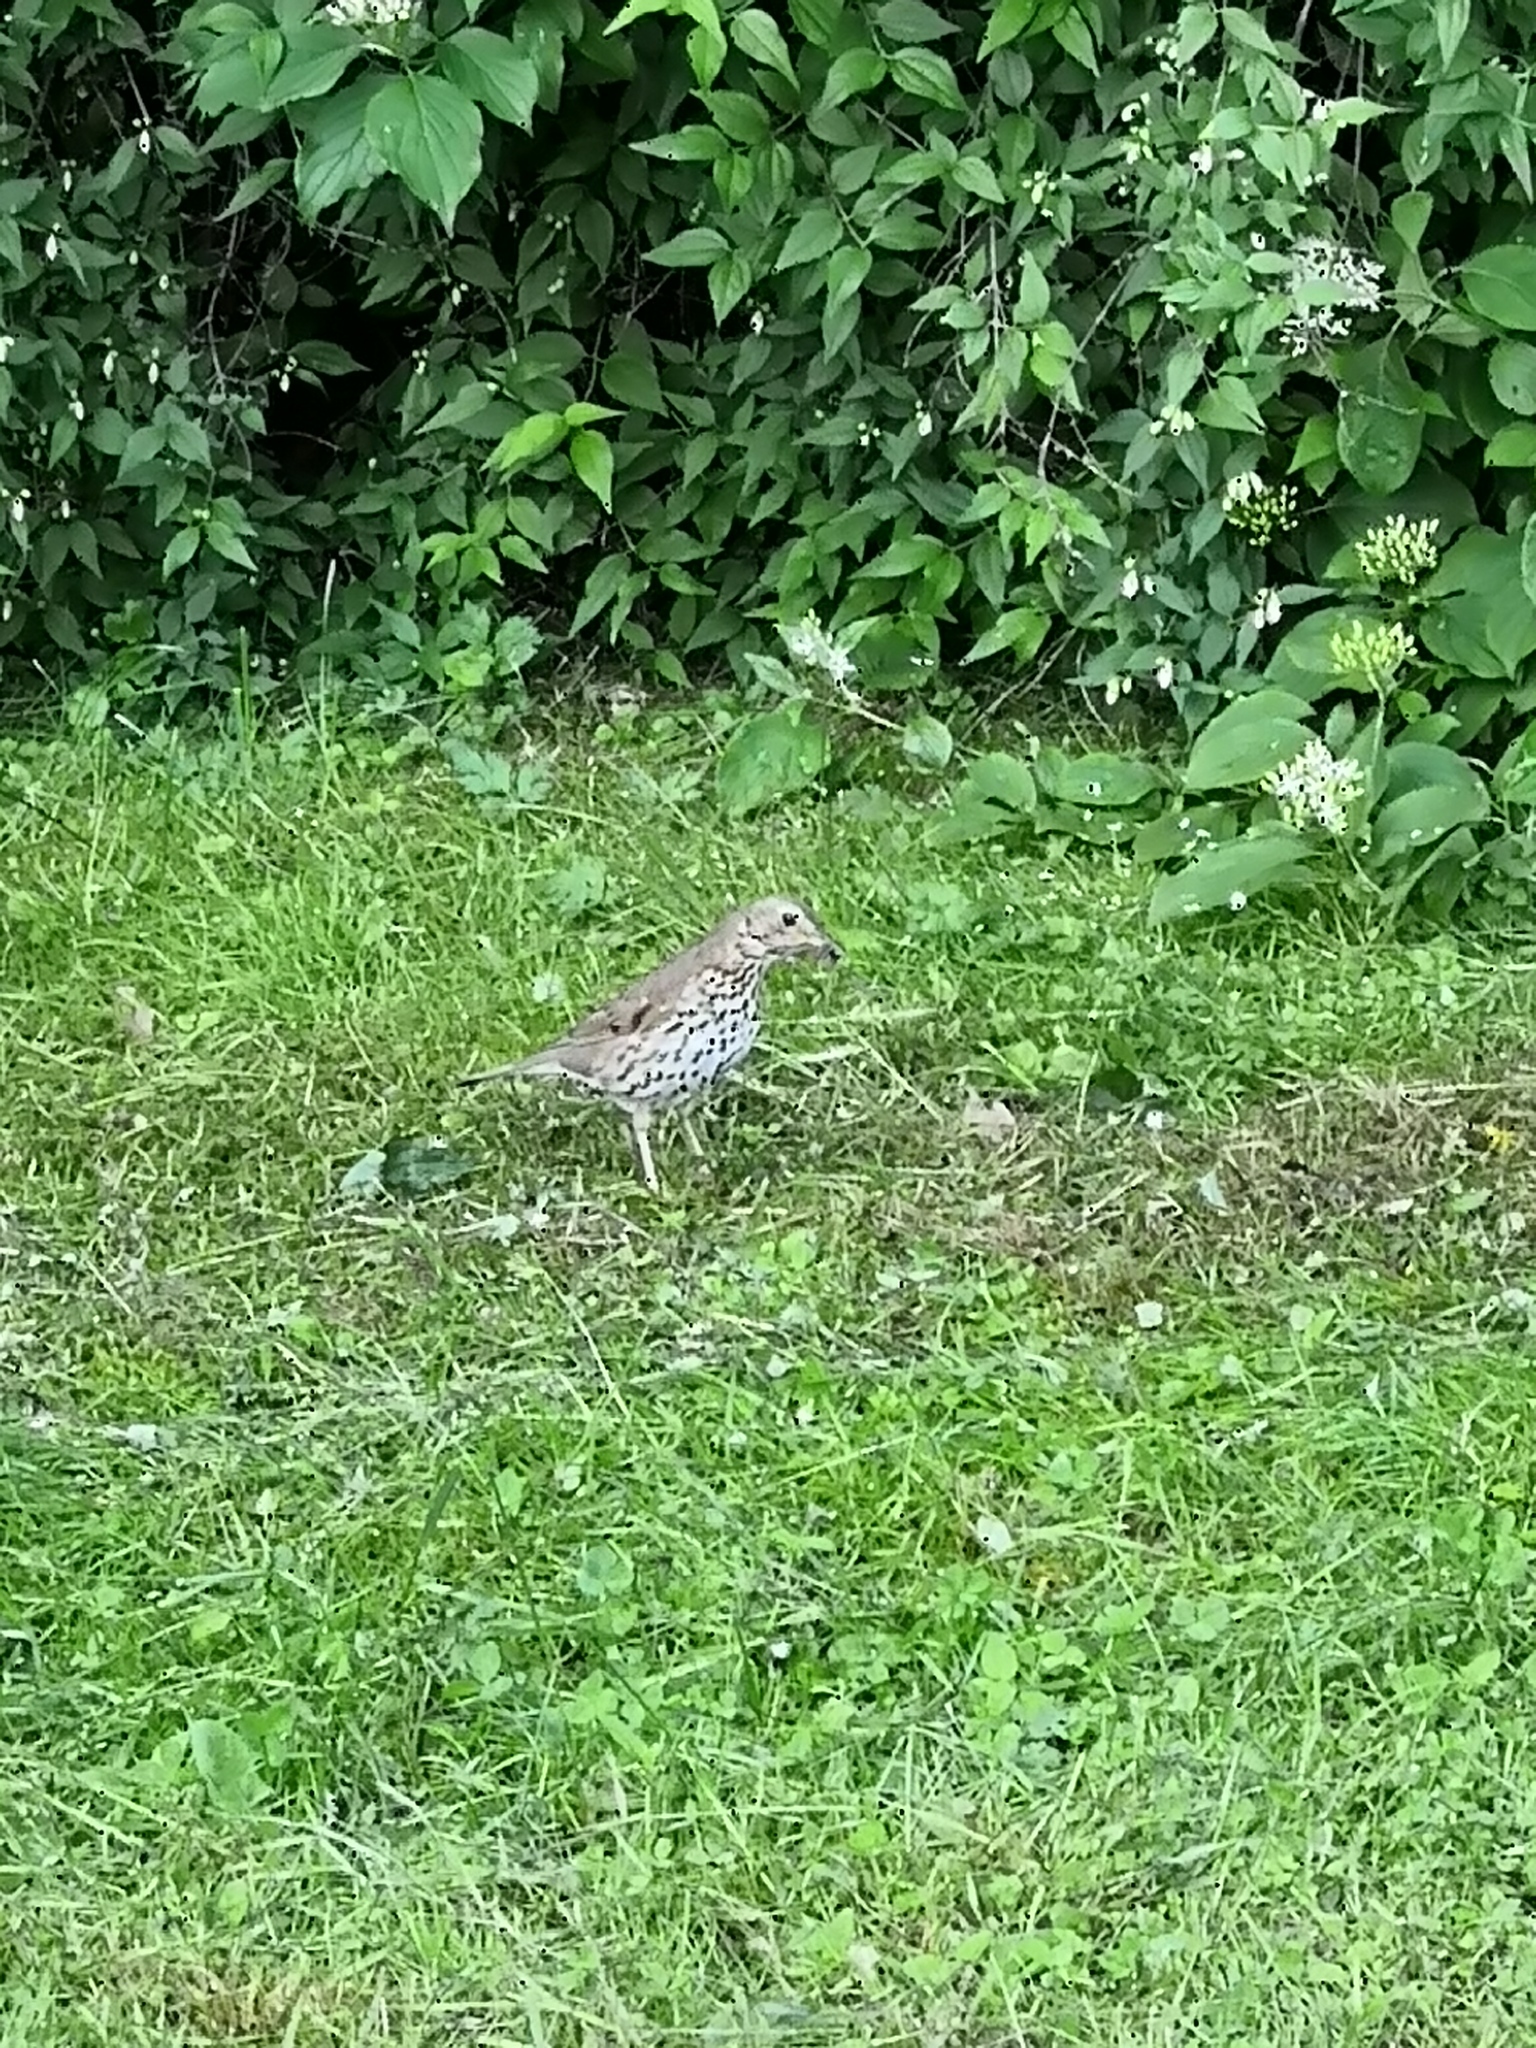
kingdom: Animalia
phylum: Chordata
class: Aves
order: Passeriformes
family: Turdidae
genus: Turdus
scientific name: Turdus viscivorus
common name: Mistle thrush
